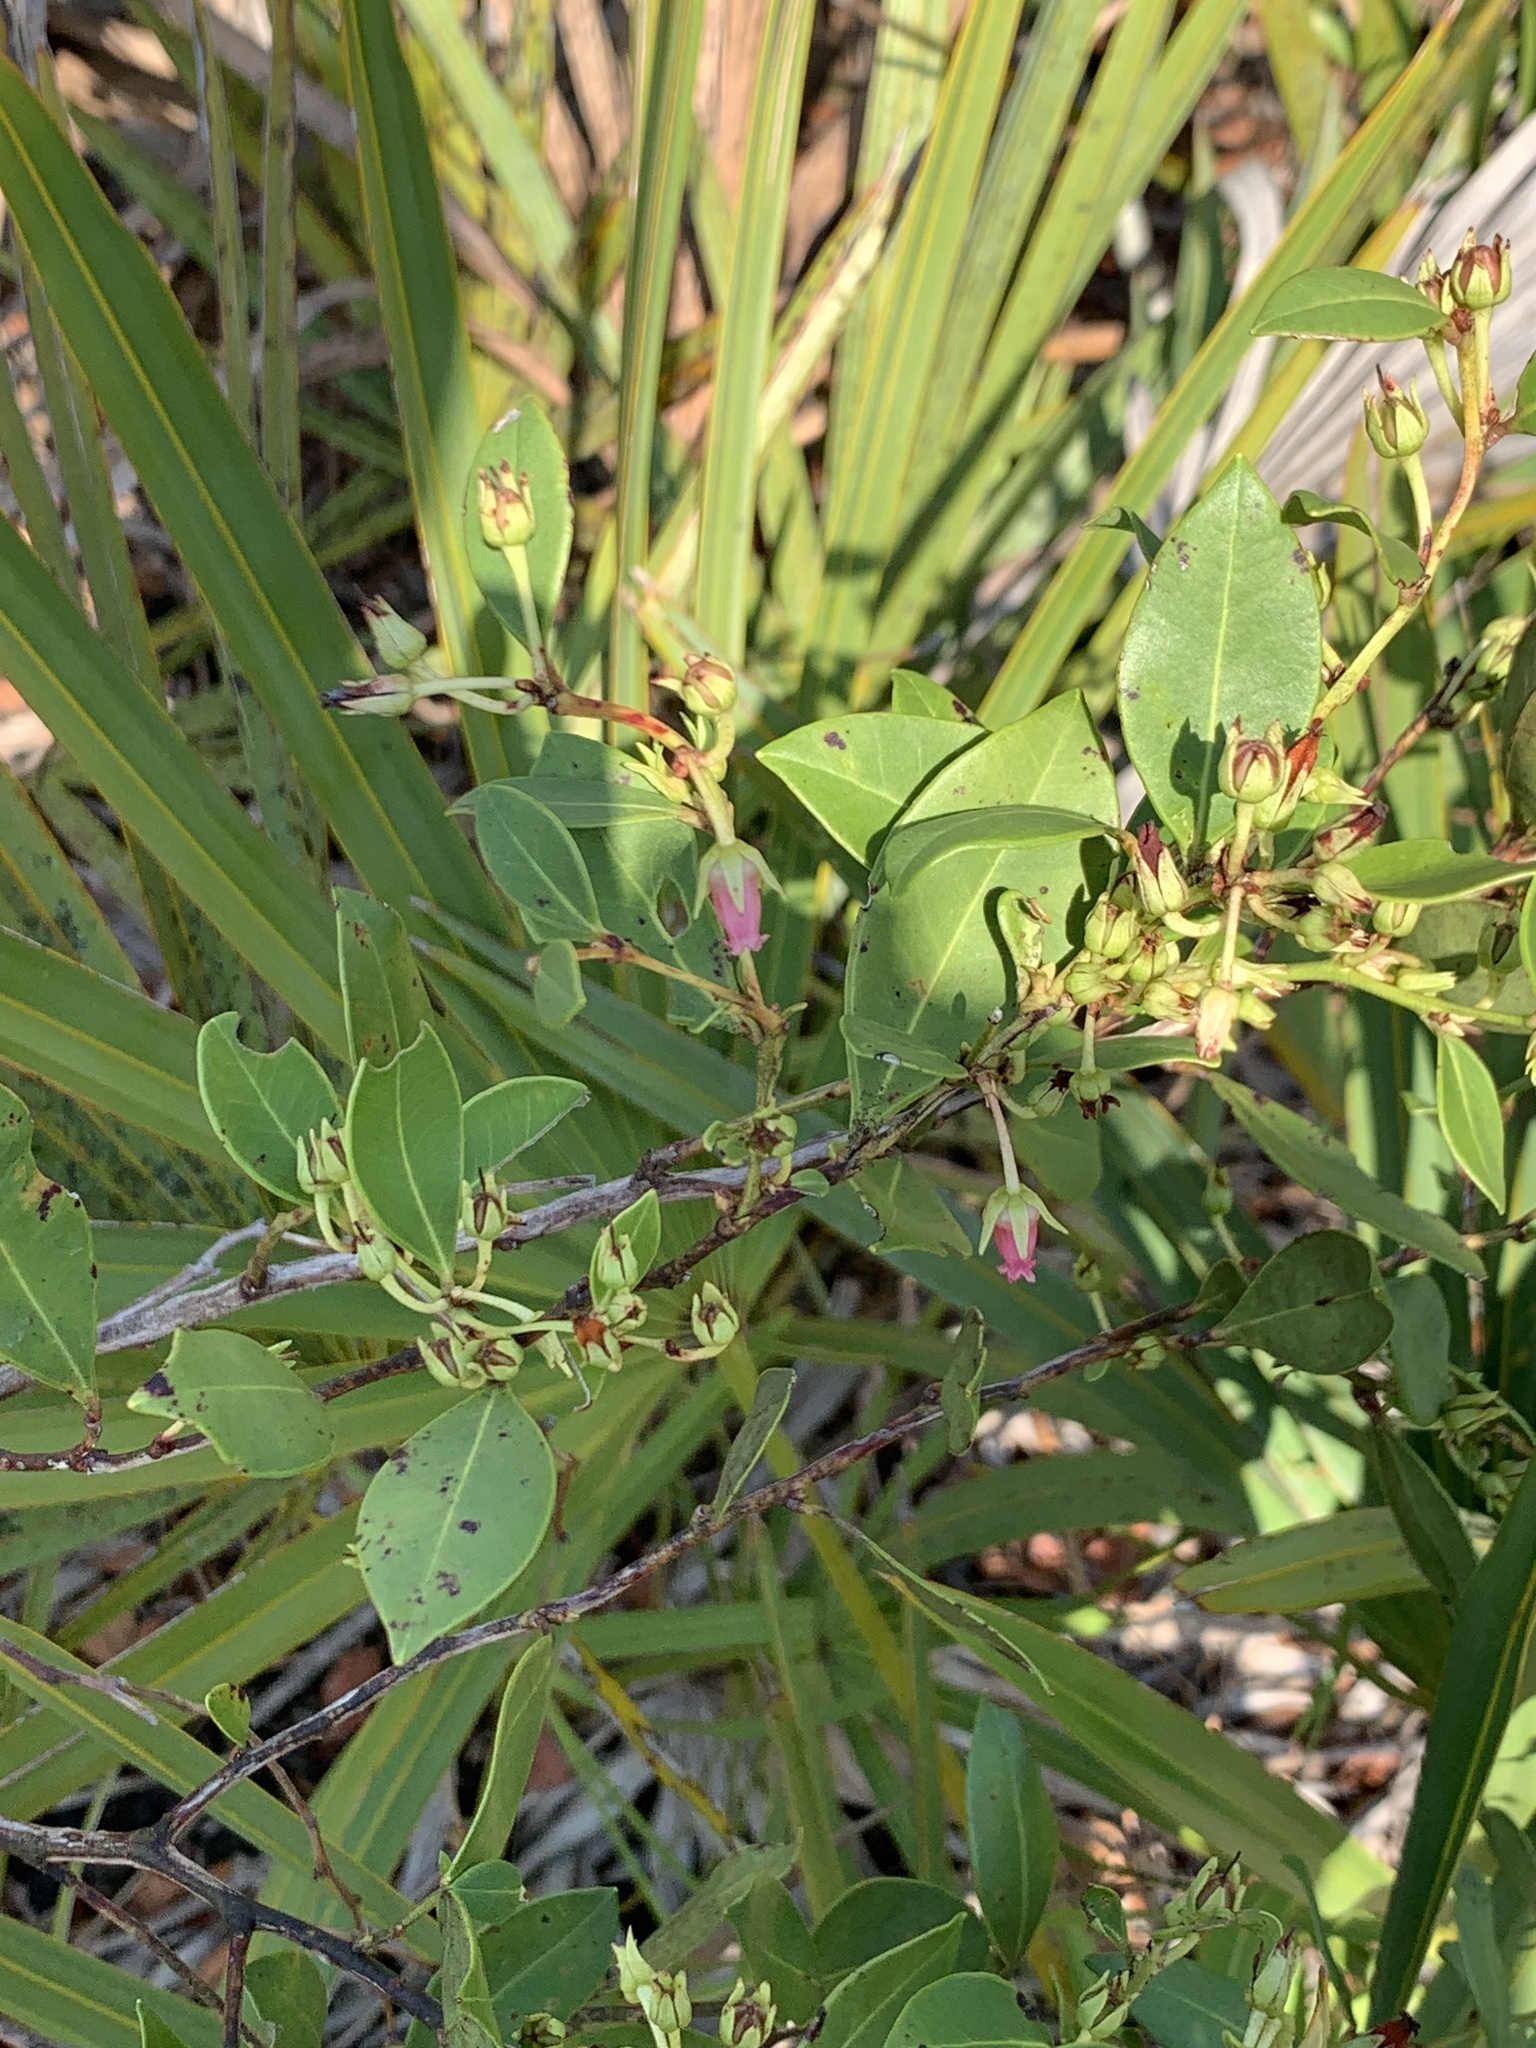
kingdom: Plantae
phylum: Tracheophyta
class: Magnoliopsida
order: Ericales
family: Ericaceae
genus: Lyonia
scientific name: Lyonia lucida
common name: Fetterbush
